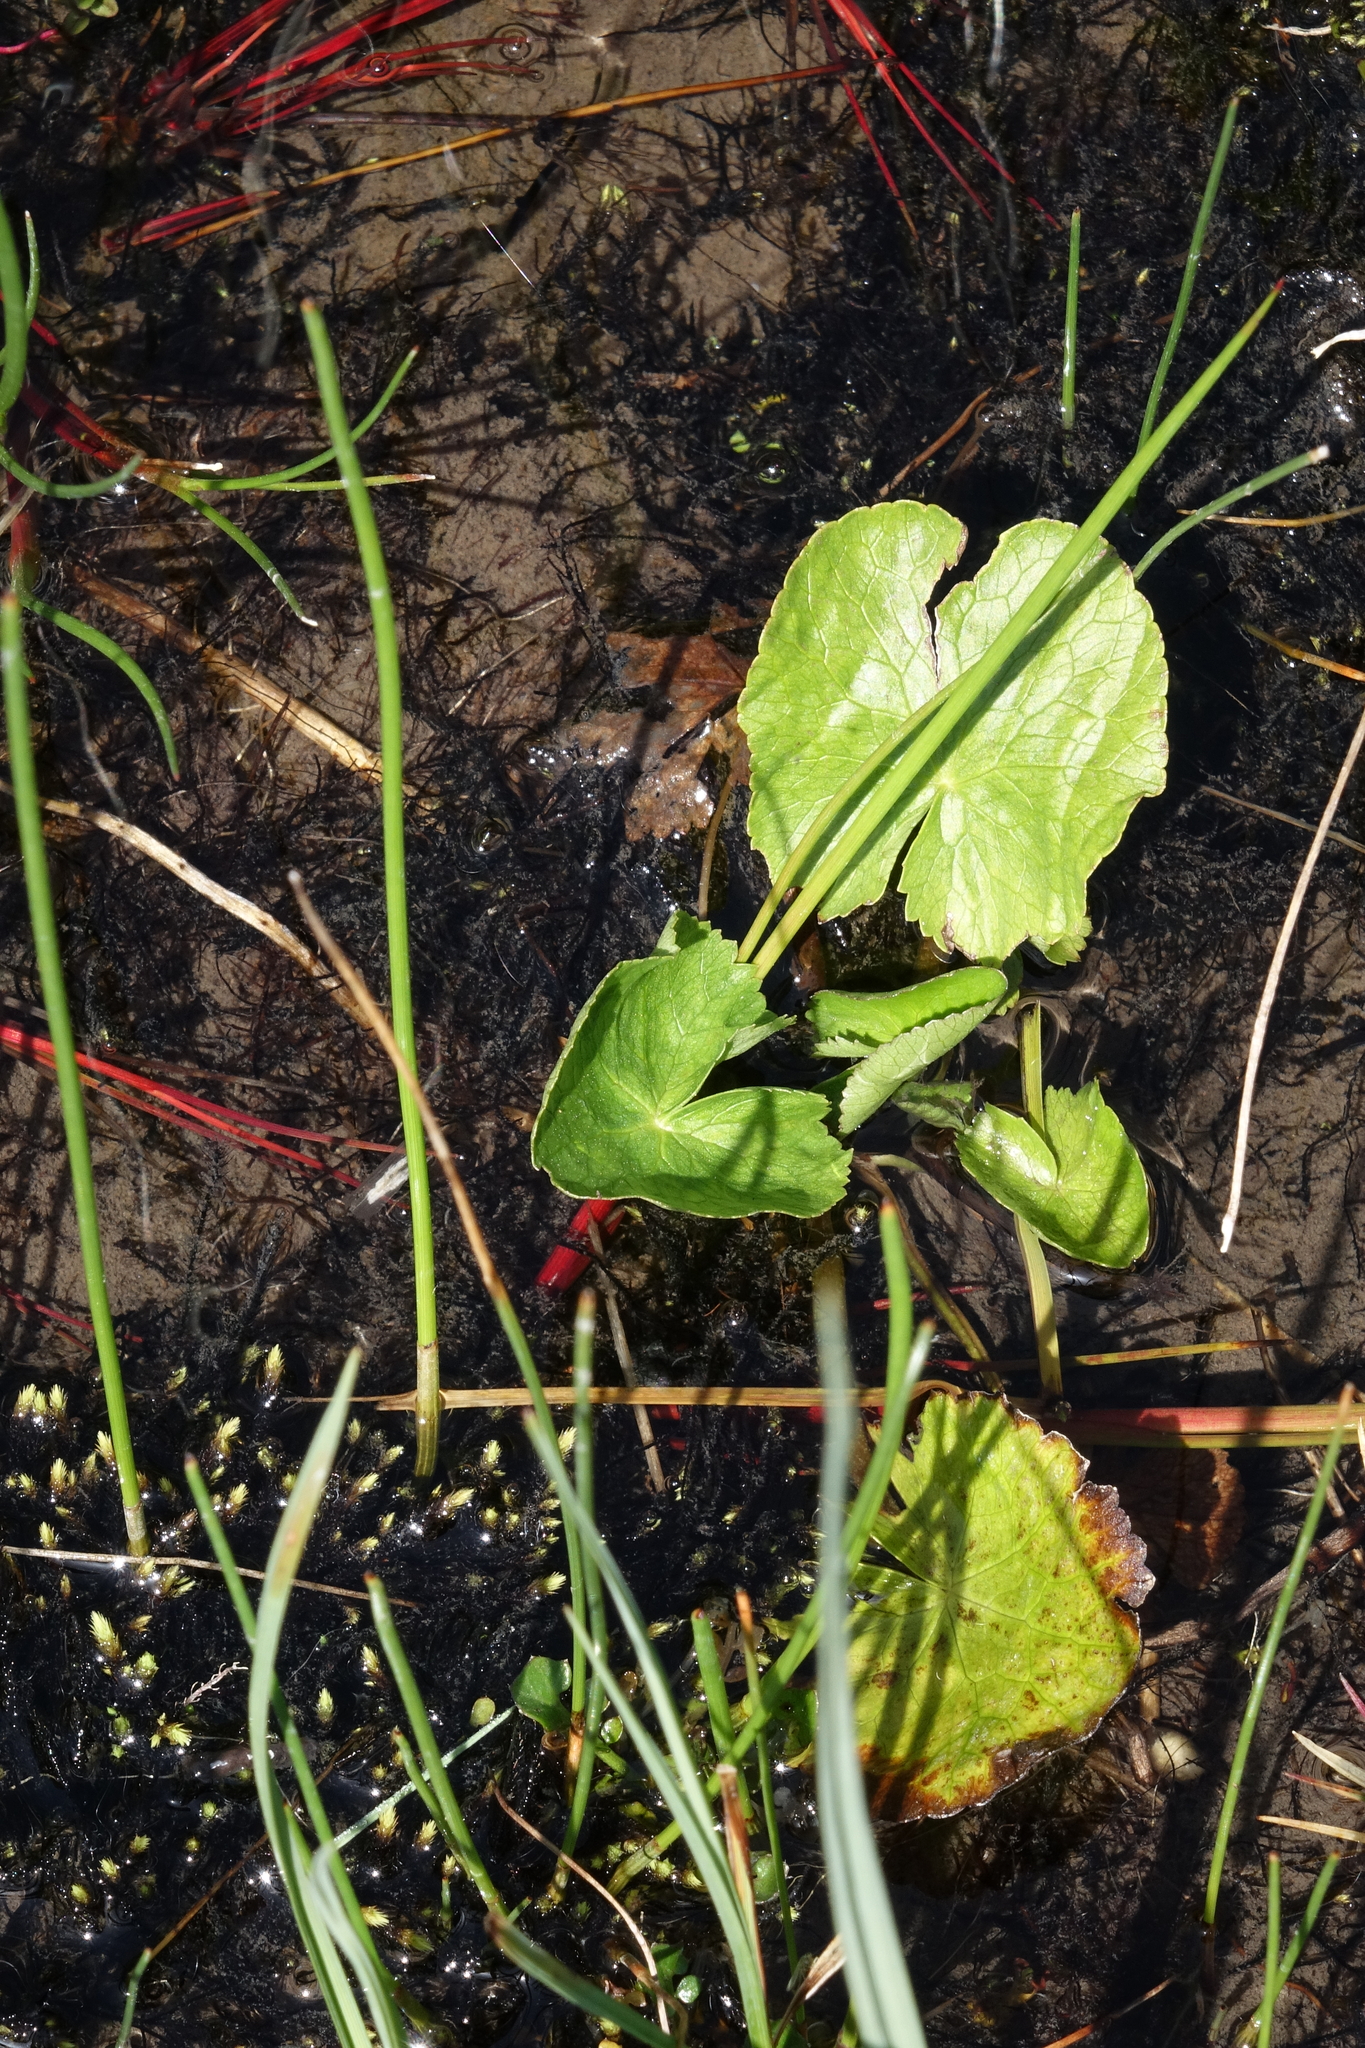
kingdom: Plantae
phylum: Tracheophyta
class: Magnoliopsida
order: Ranunculales
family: Ranunculaceae
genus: Caltha
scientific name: Caltha palustris
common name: Marsh marigold
